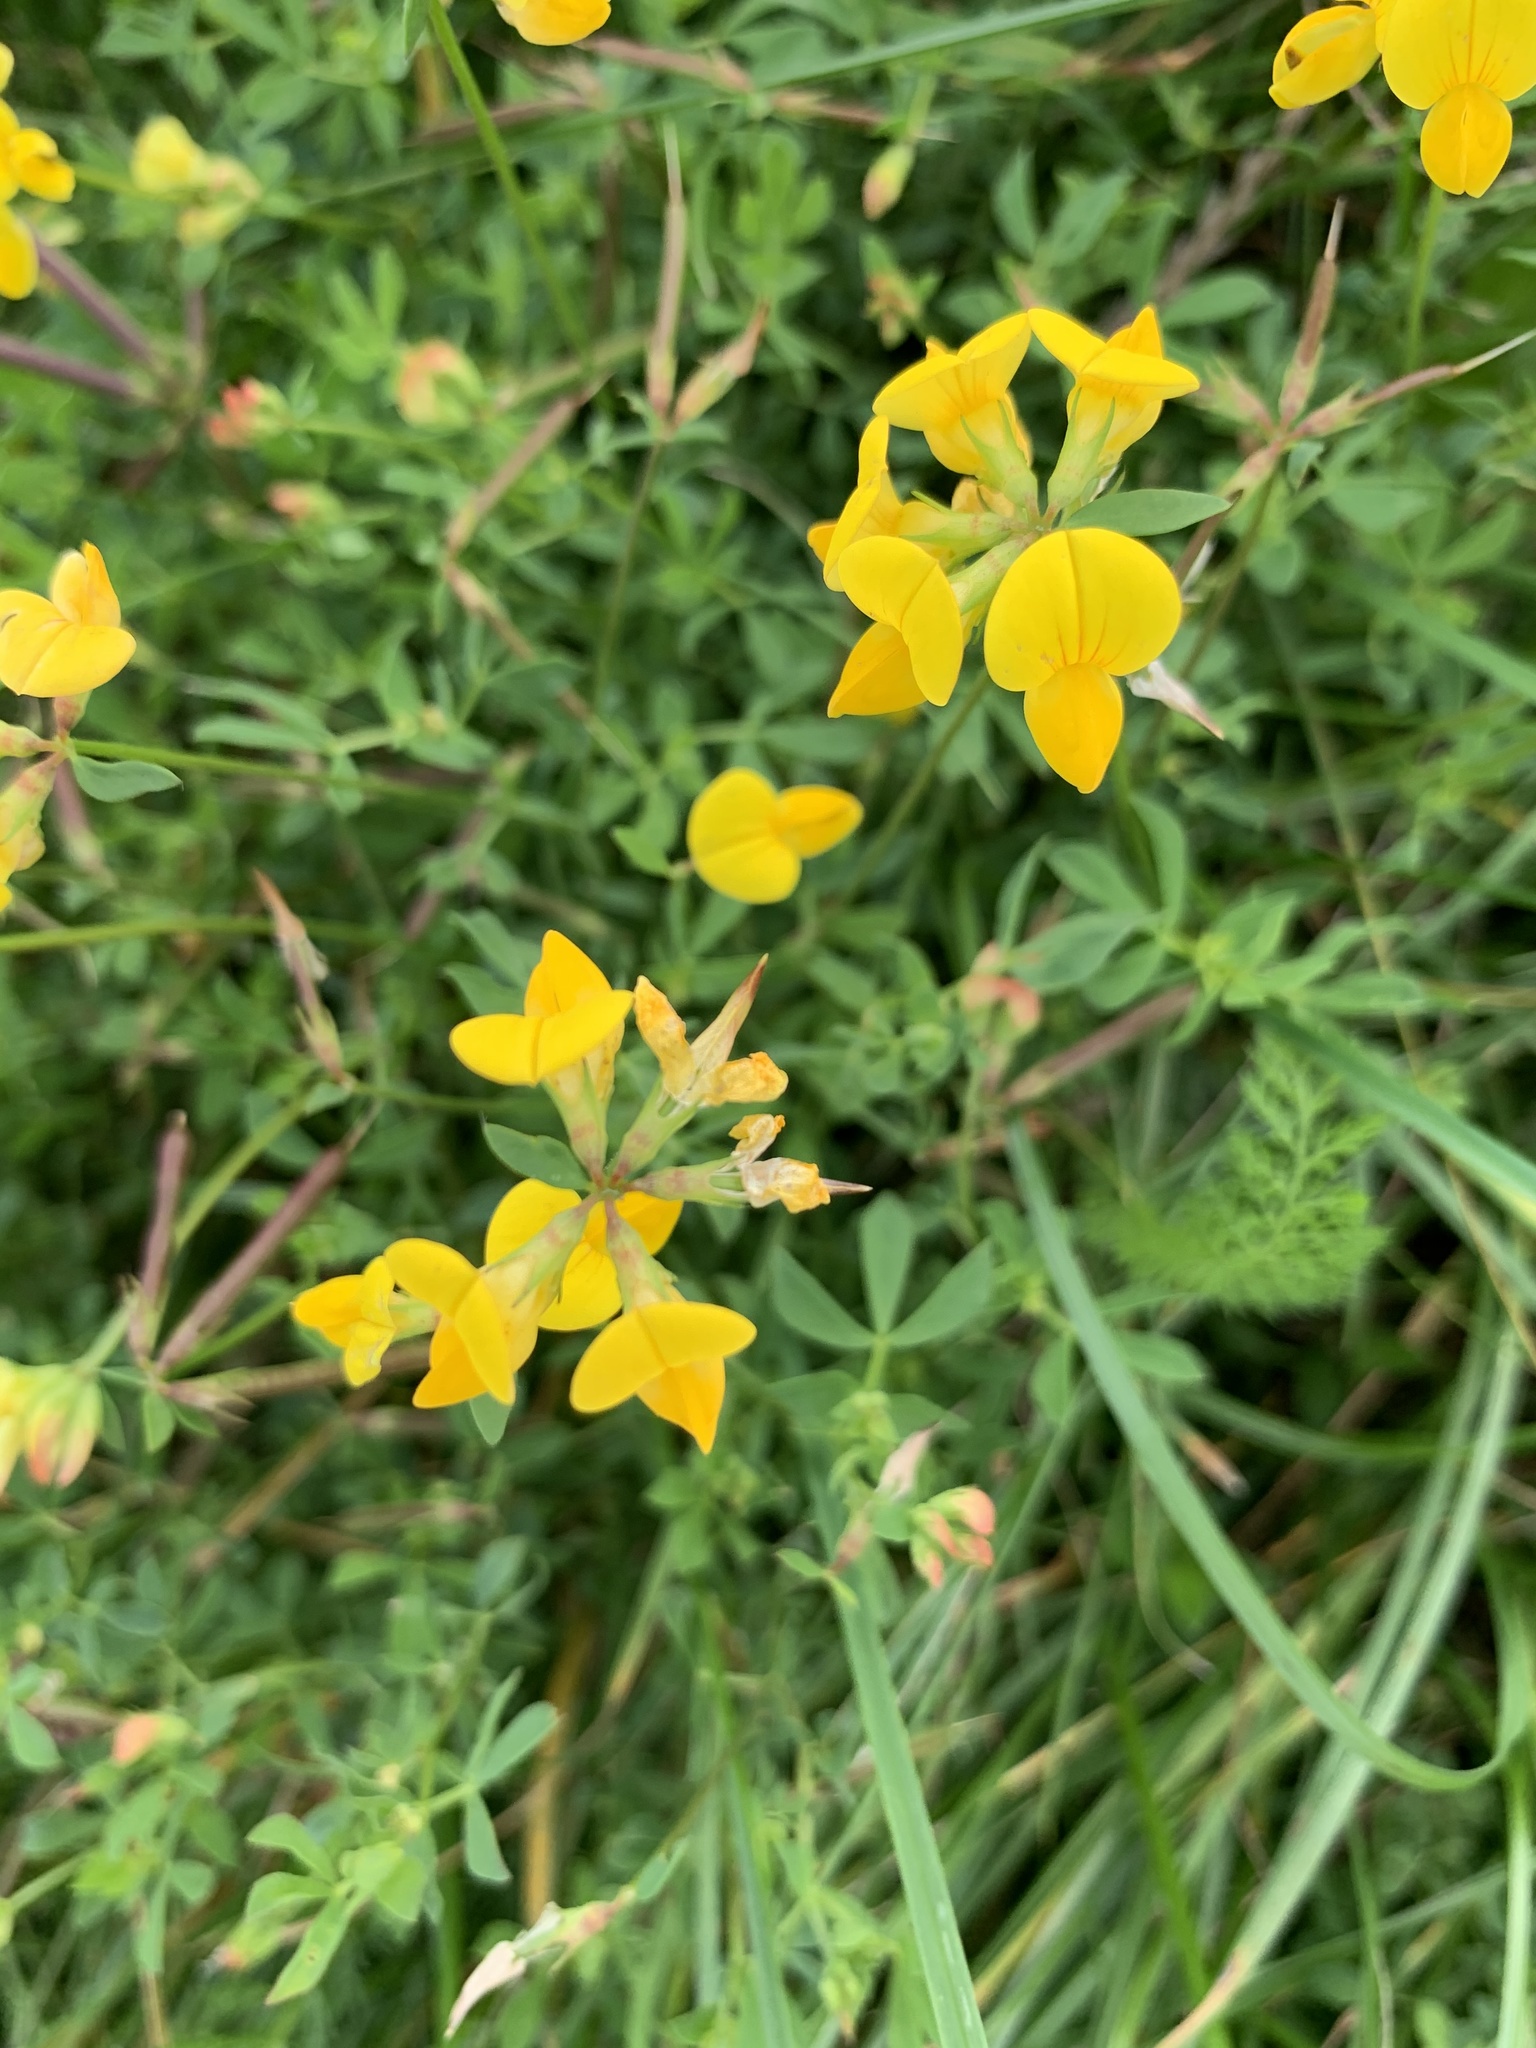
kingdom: Plantae
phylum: Tracheophyta
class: Magnoliopsida
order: Fabales
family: Fabaceae
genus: Lotus
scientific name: Lotus corniculatus
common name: Common bird's-foot-trefoil
